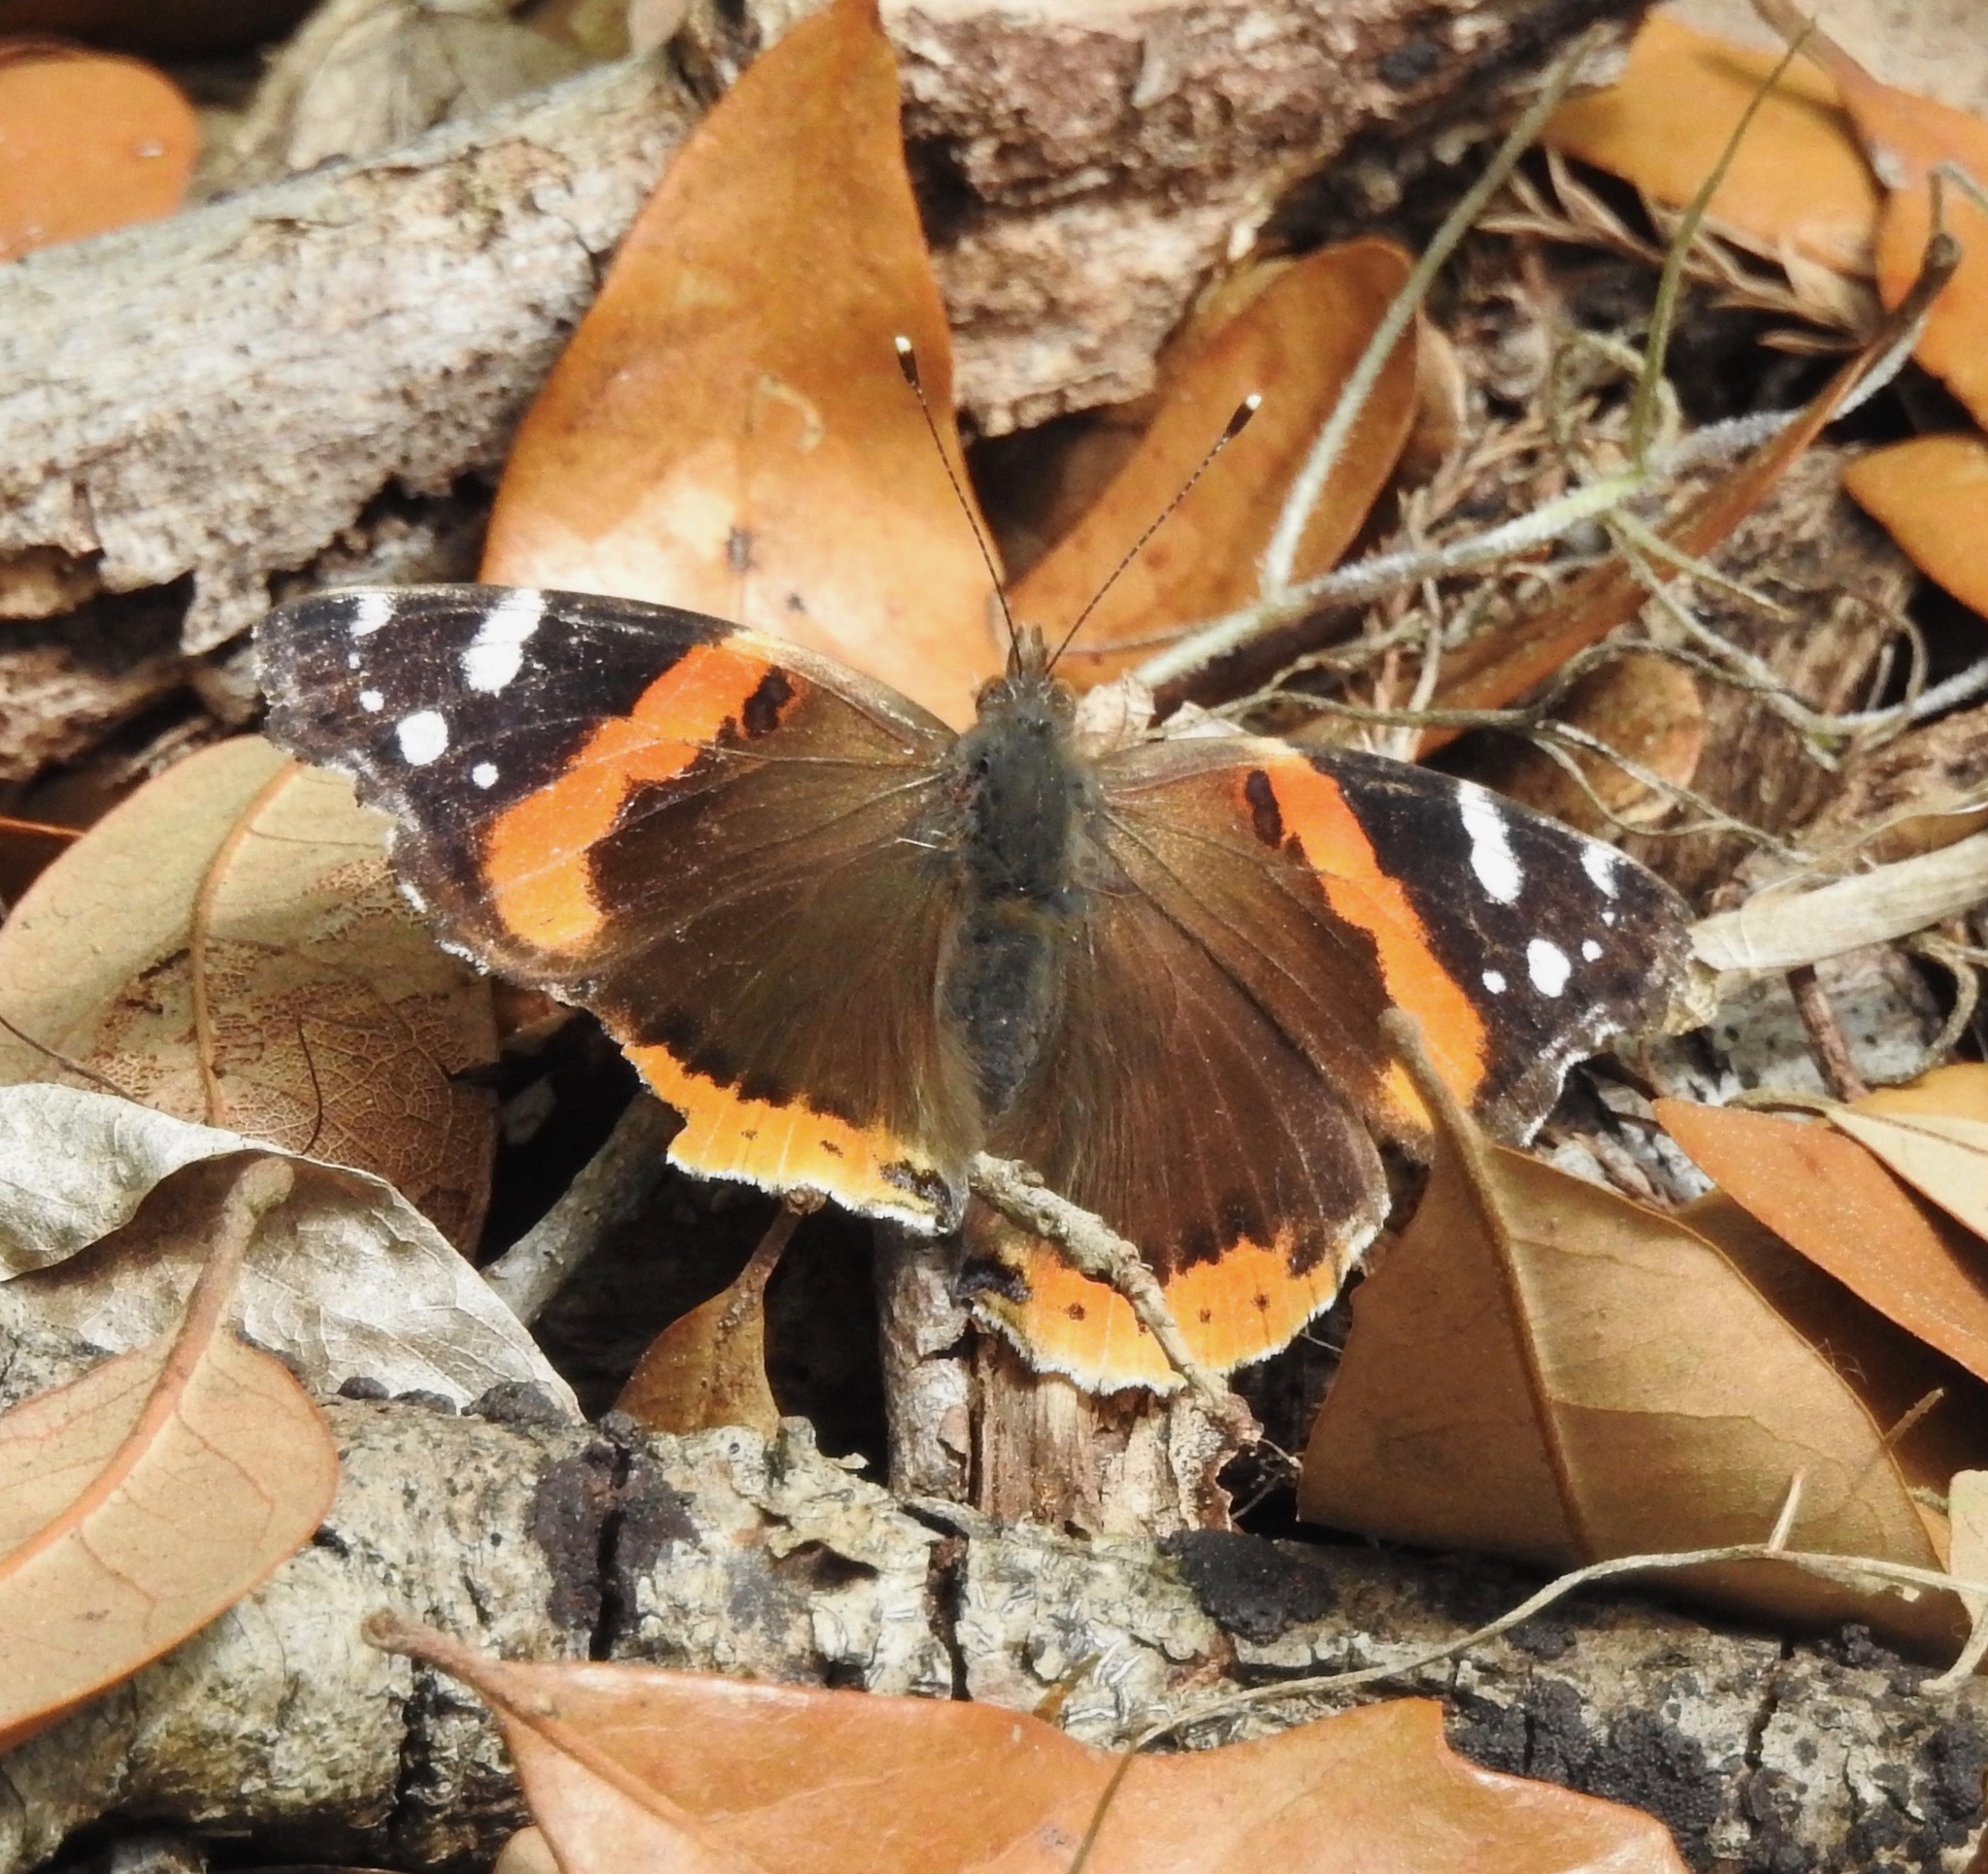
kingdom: Animalia
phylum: Arthropoda
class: Insecta
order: Lepidoptera
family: Nymphalidae
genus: Vanessa
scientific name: Vanessa atalanta
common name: Red admiral
